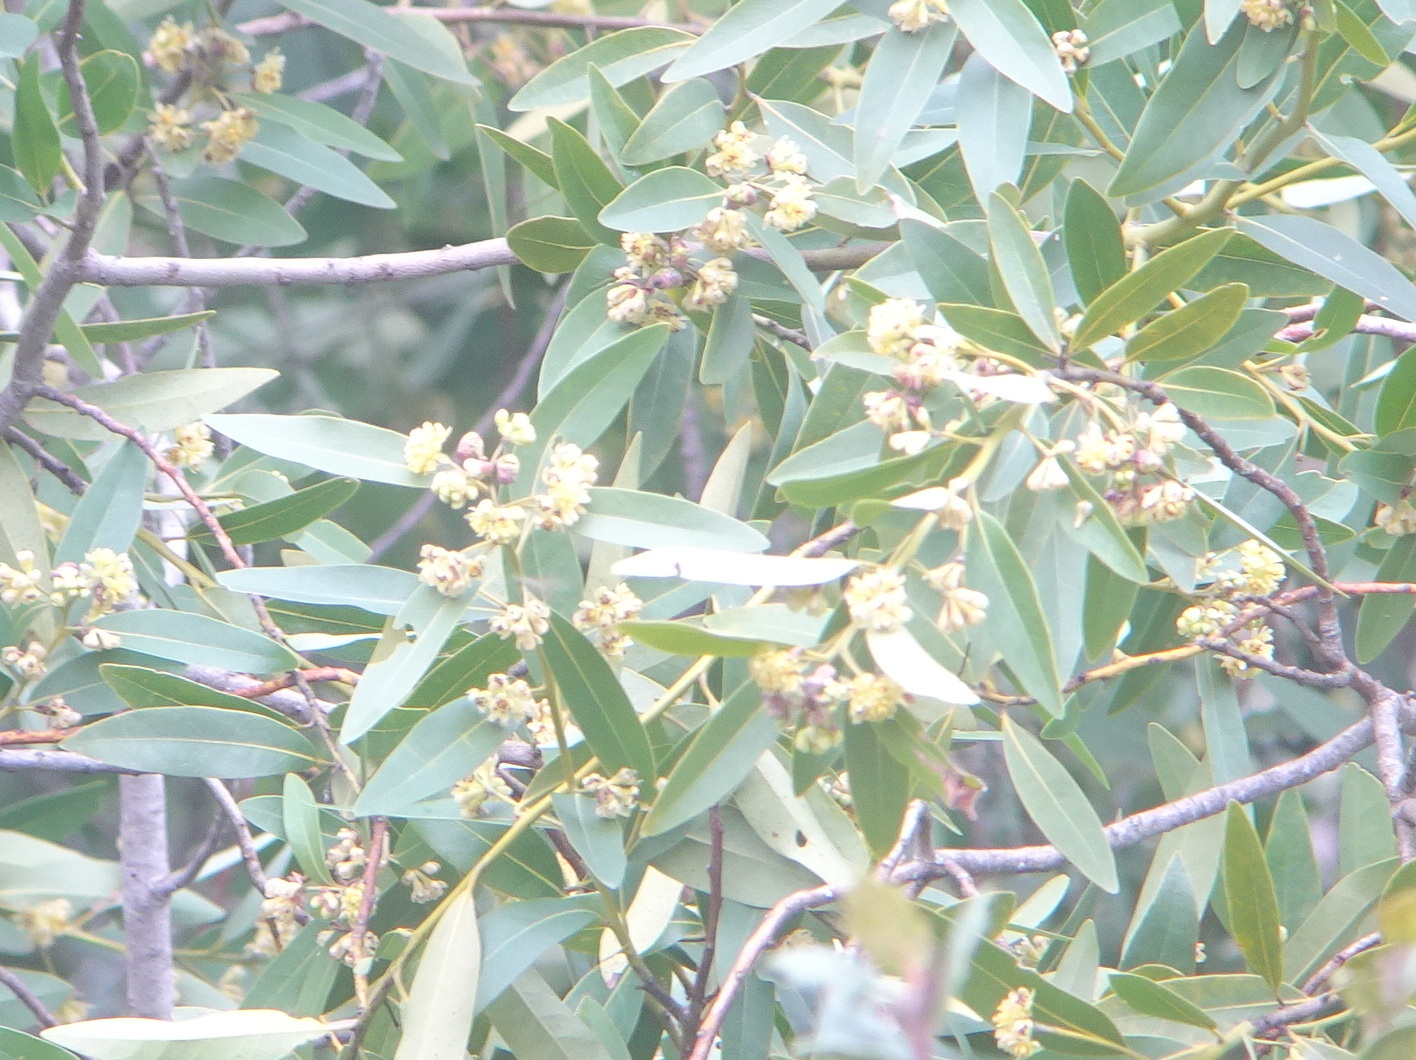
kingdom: Plantae
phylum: Tracheophyta
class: Magnoliopsida
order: Laurales
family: Lauraceae
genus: Umbellularia
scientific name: Umbellularia californica
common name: California bay
